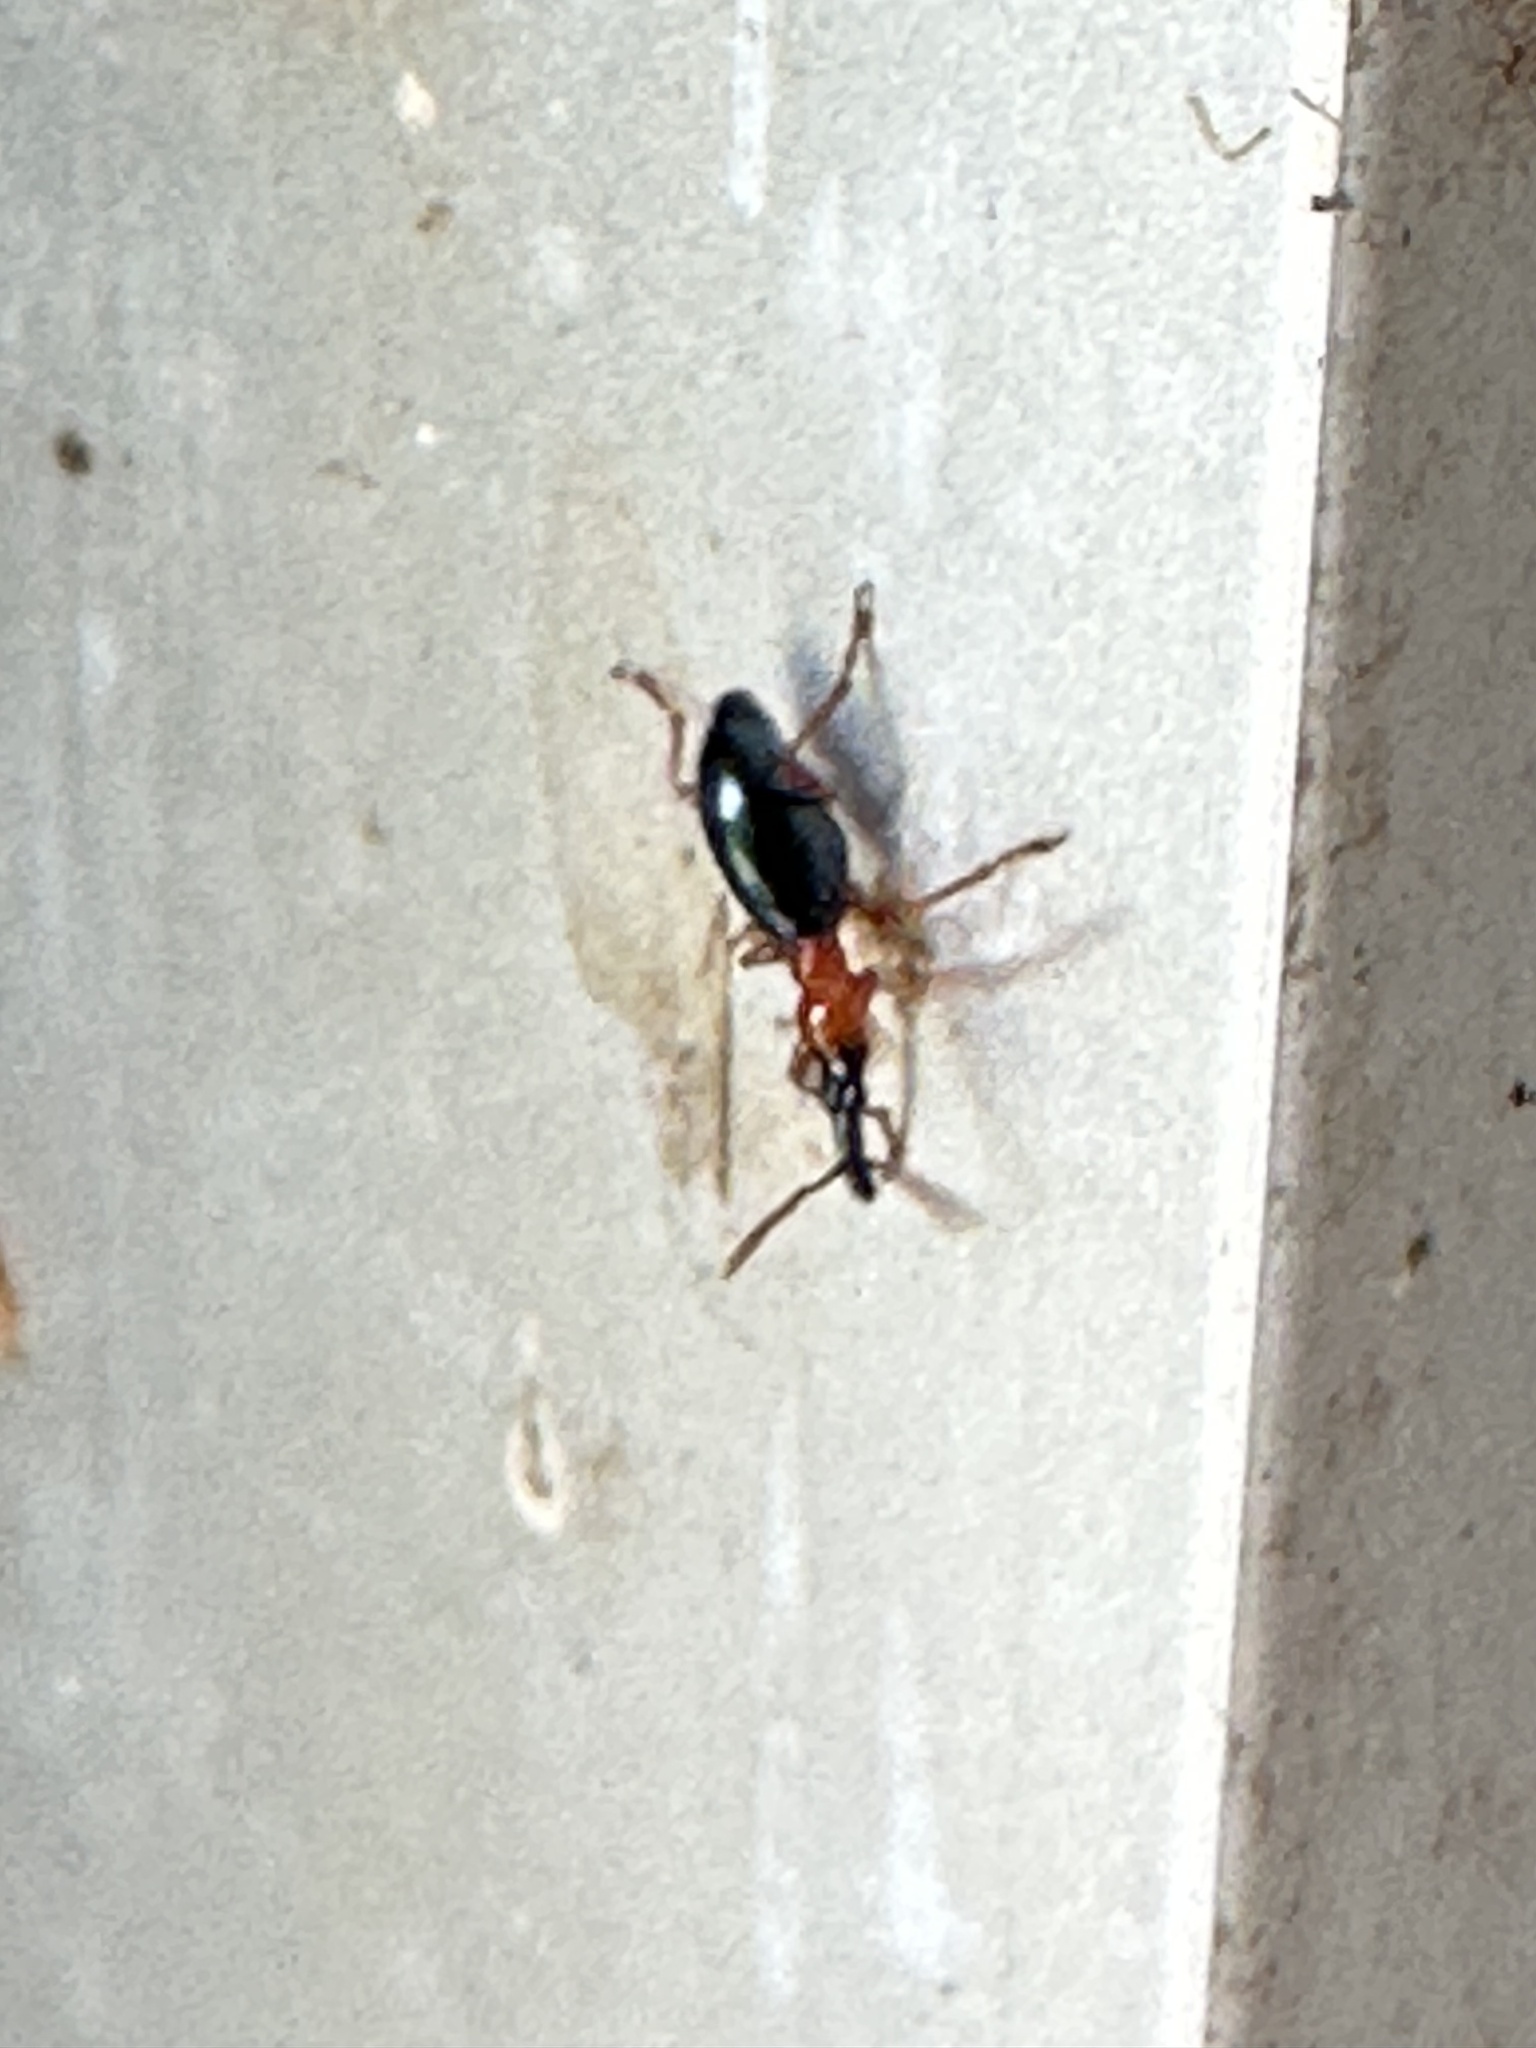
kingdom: Animalia
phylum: Arthropoda
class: Insecta
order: Coleoptera
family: Brentidae
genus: Cylas
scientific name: Cylas formicarius
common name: Sweetpotato weevil
